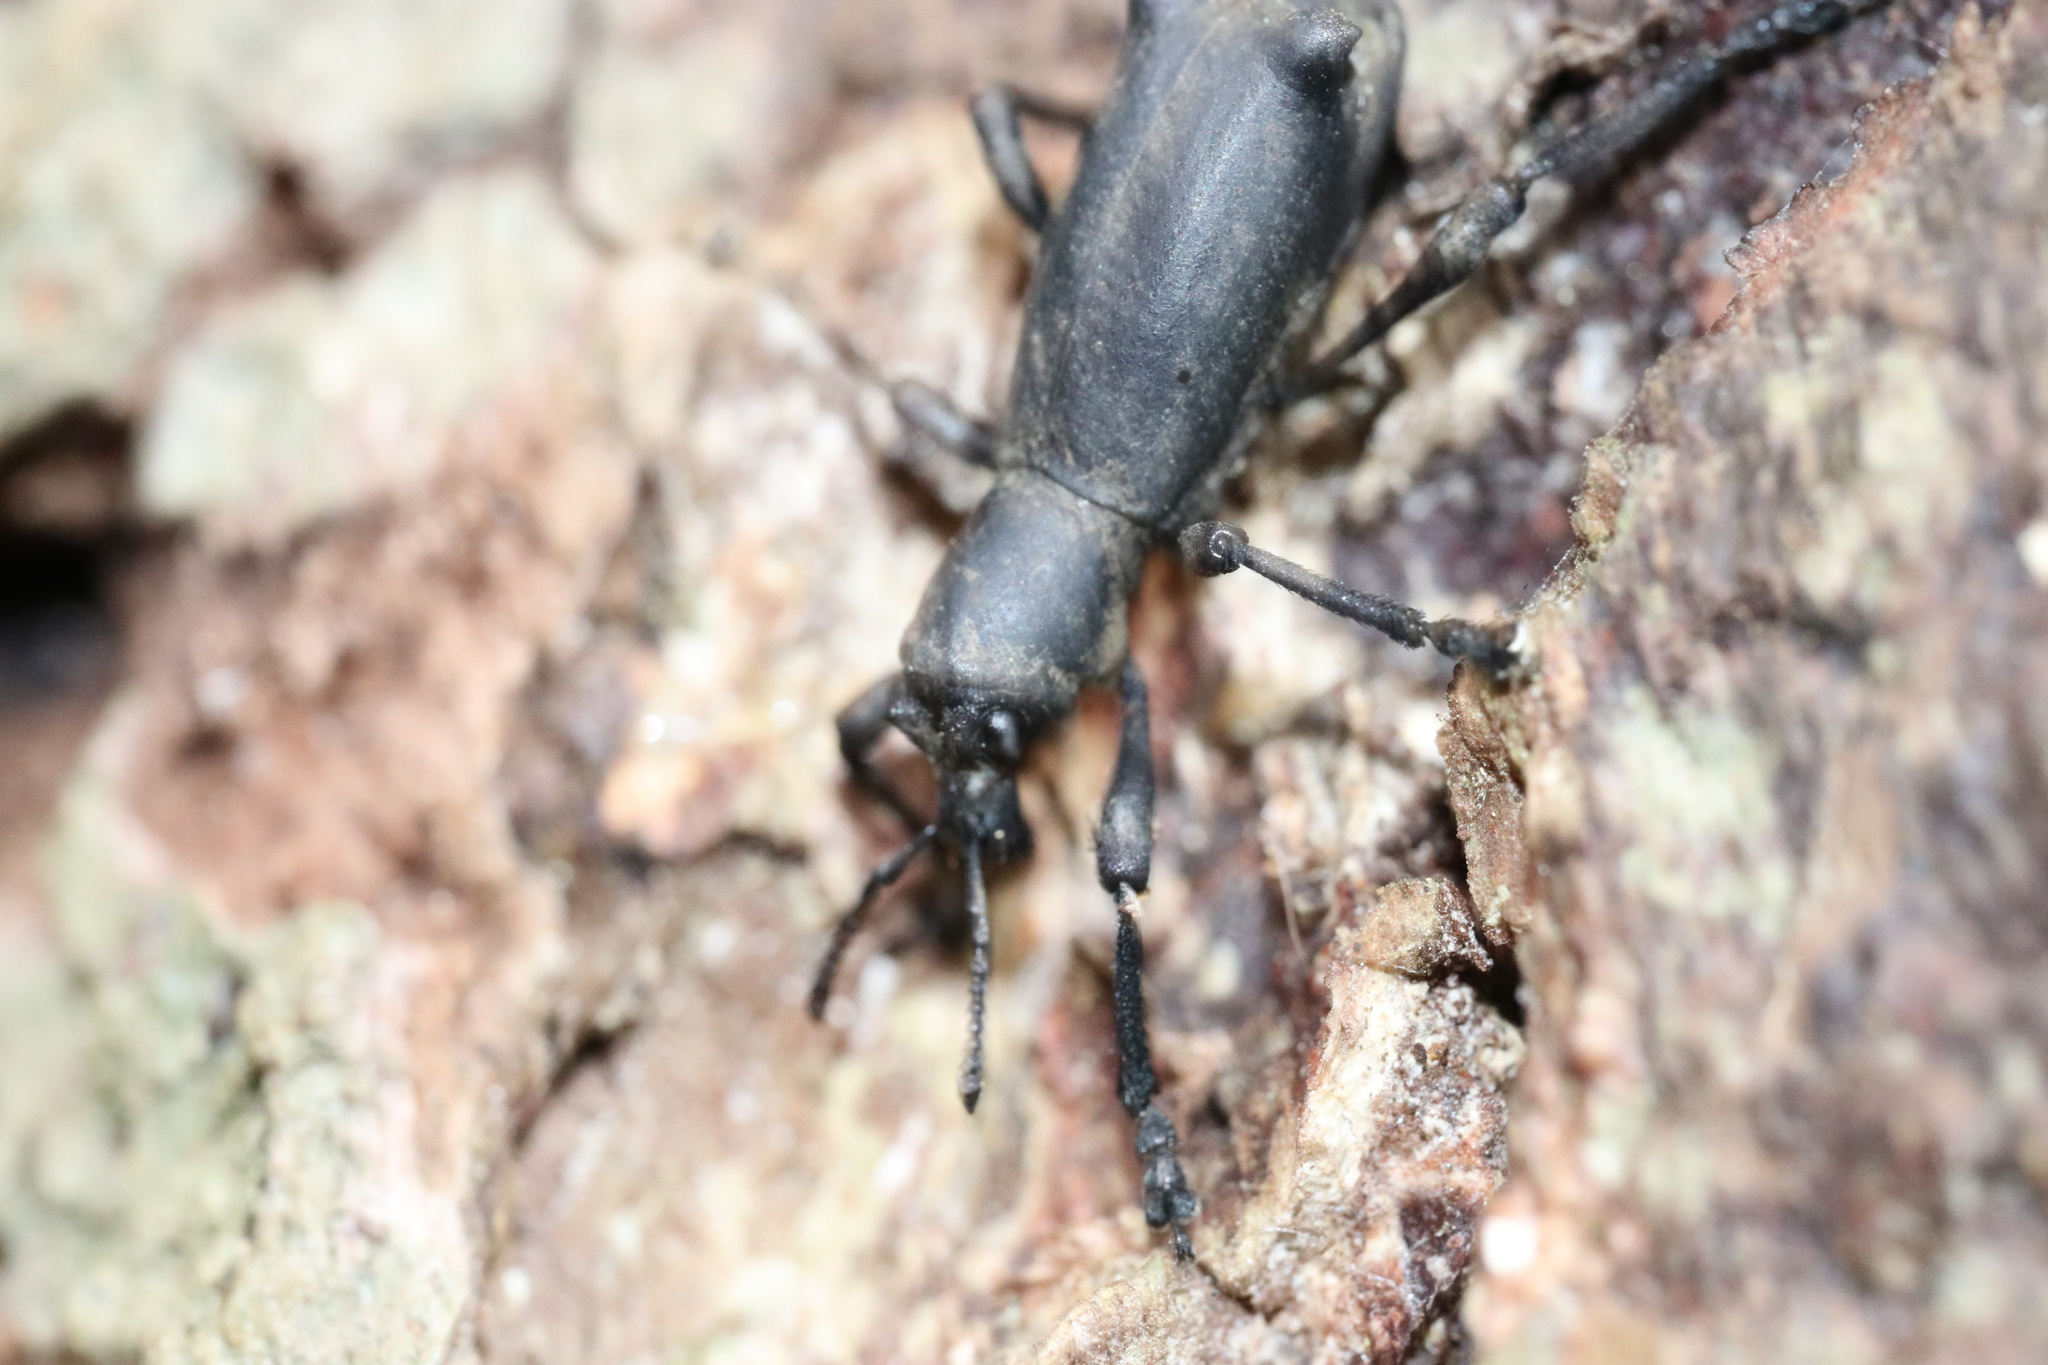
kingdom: Animalia
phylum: Arthropoda
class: Insecta
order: Coleoptera
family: Curculionidae
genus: Aegorhinus
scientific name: Aegorhinus
